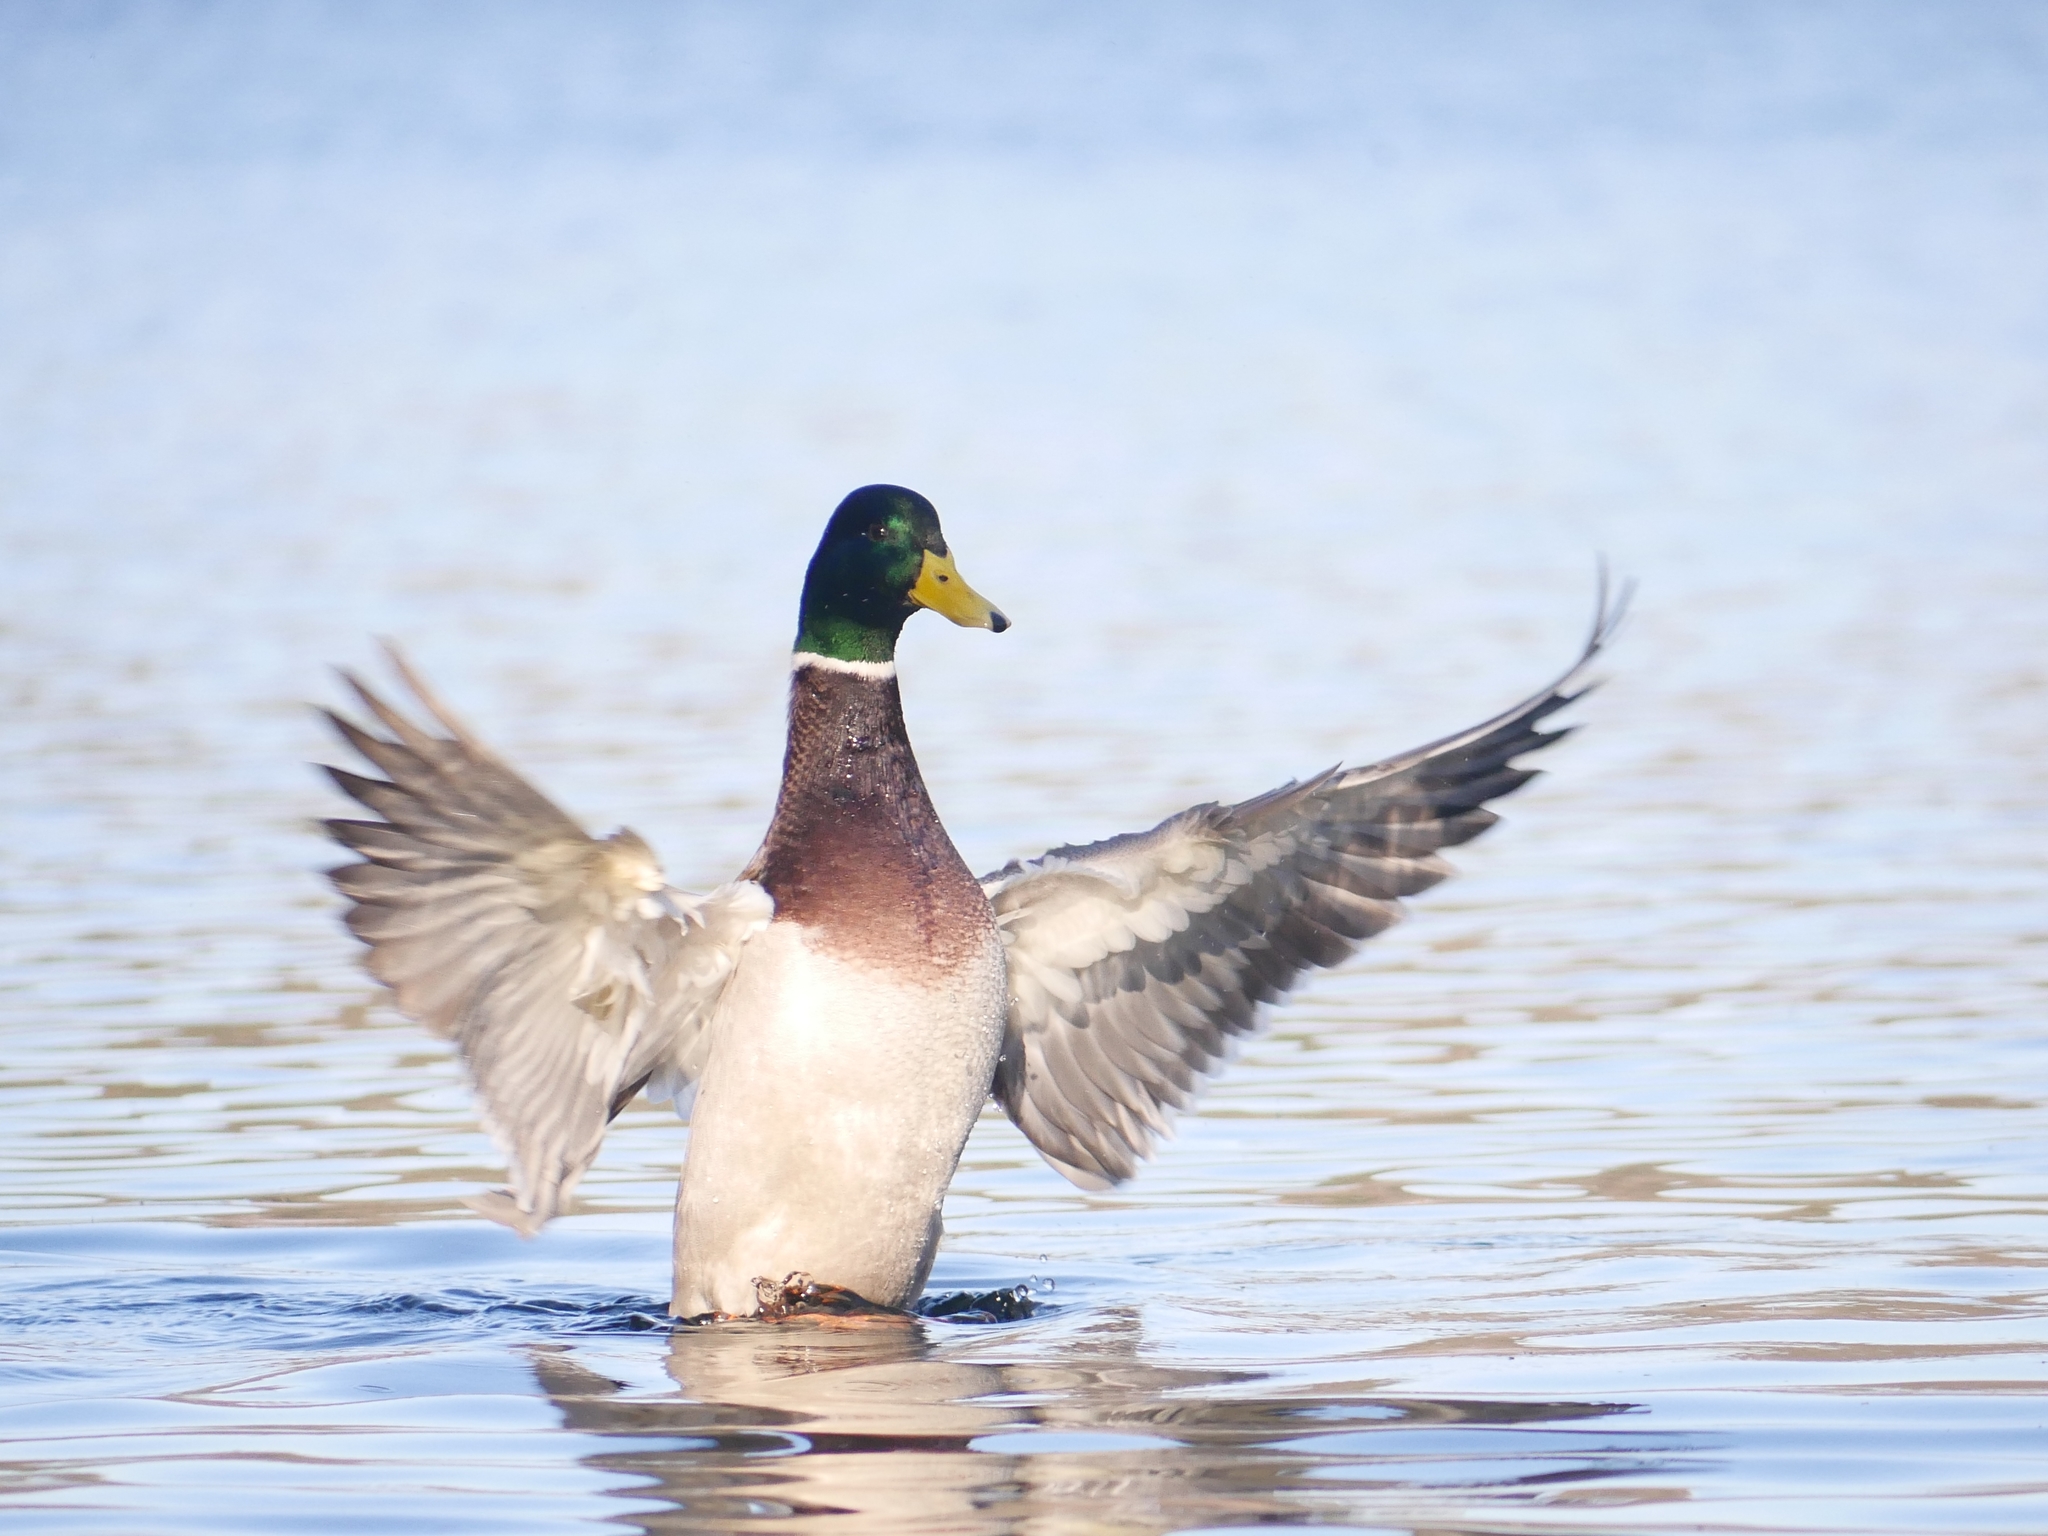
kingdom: Animalia
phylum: Chordata
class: Aves
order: Anseriformes
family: Anatidae
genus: Anas
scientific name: Anas platyrhynchos
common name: Mallard
